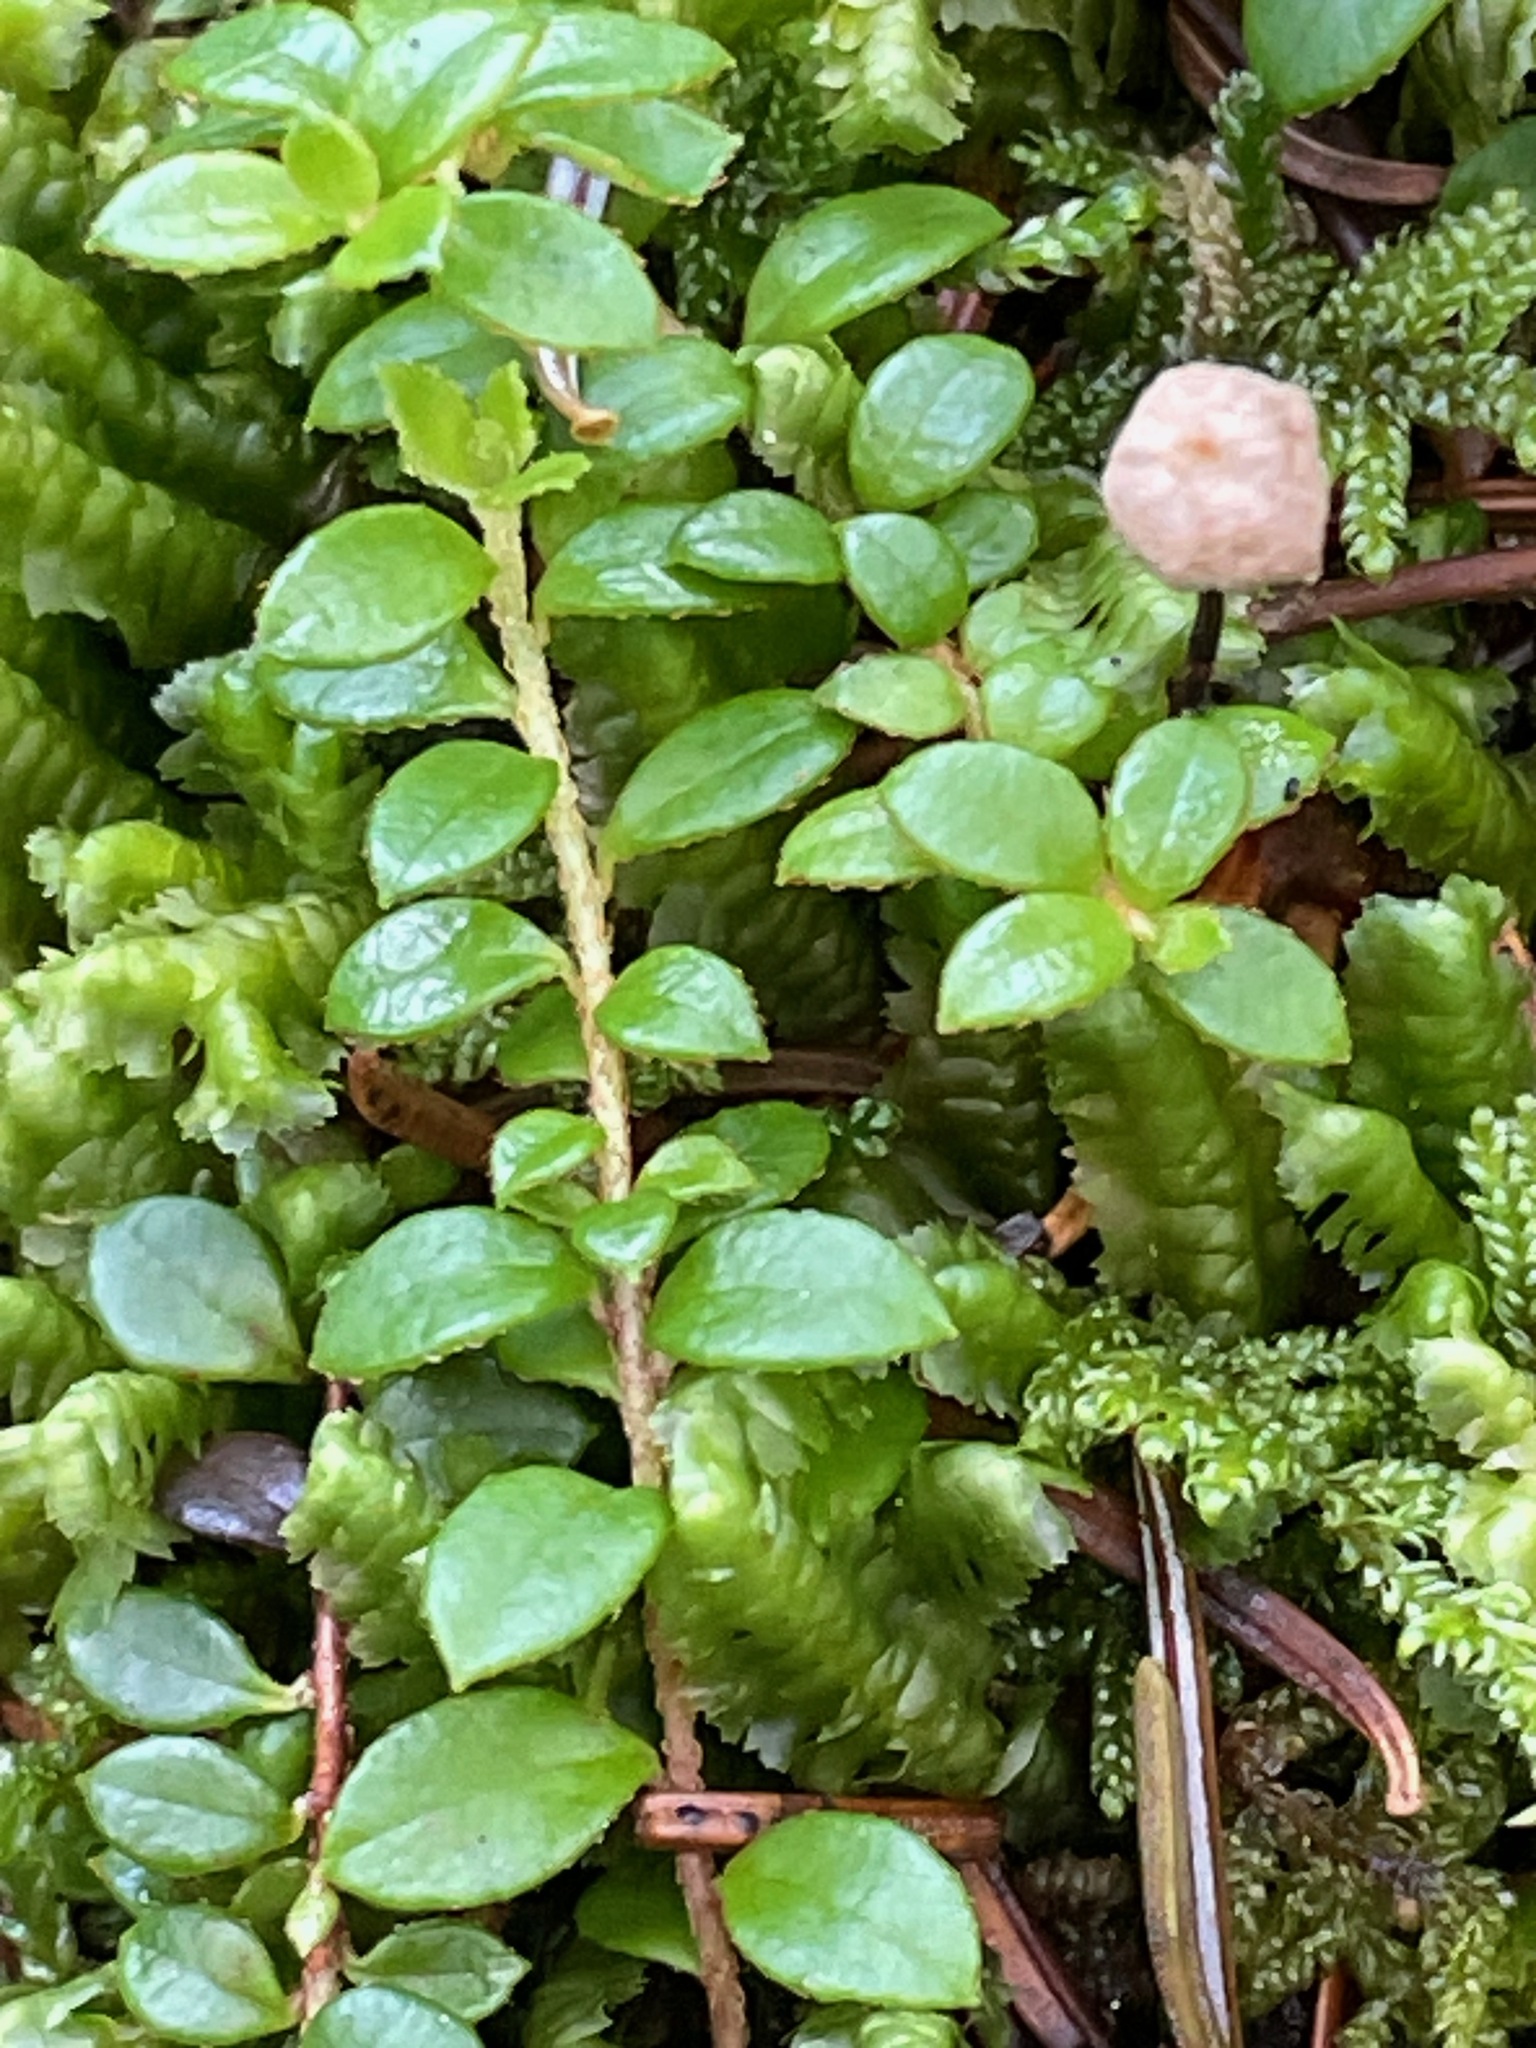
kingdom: Plantae
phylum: Tracheophyta
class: Magnoliopsida
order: Ericales
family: Ericaceae
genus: Gaultheria
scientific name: Gaultheria hispidula
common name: Cancer wintergreen
